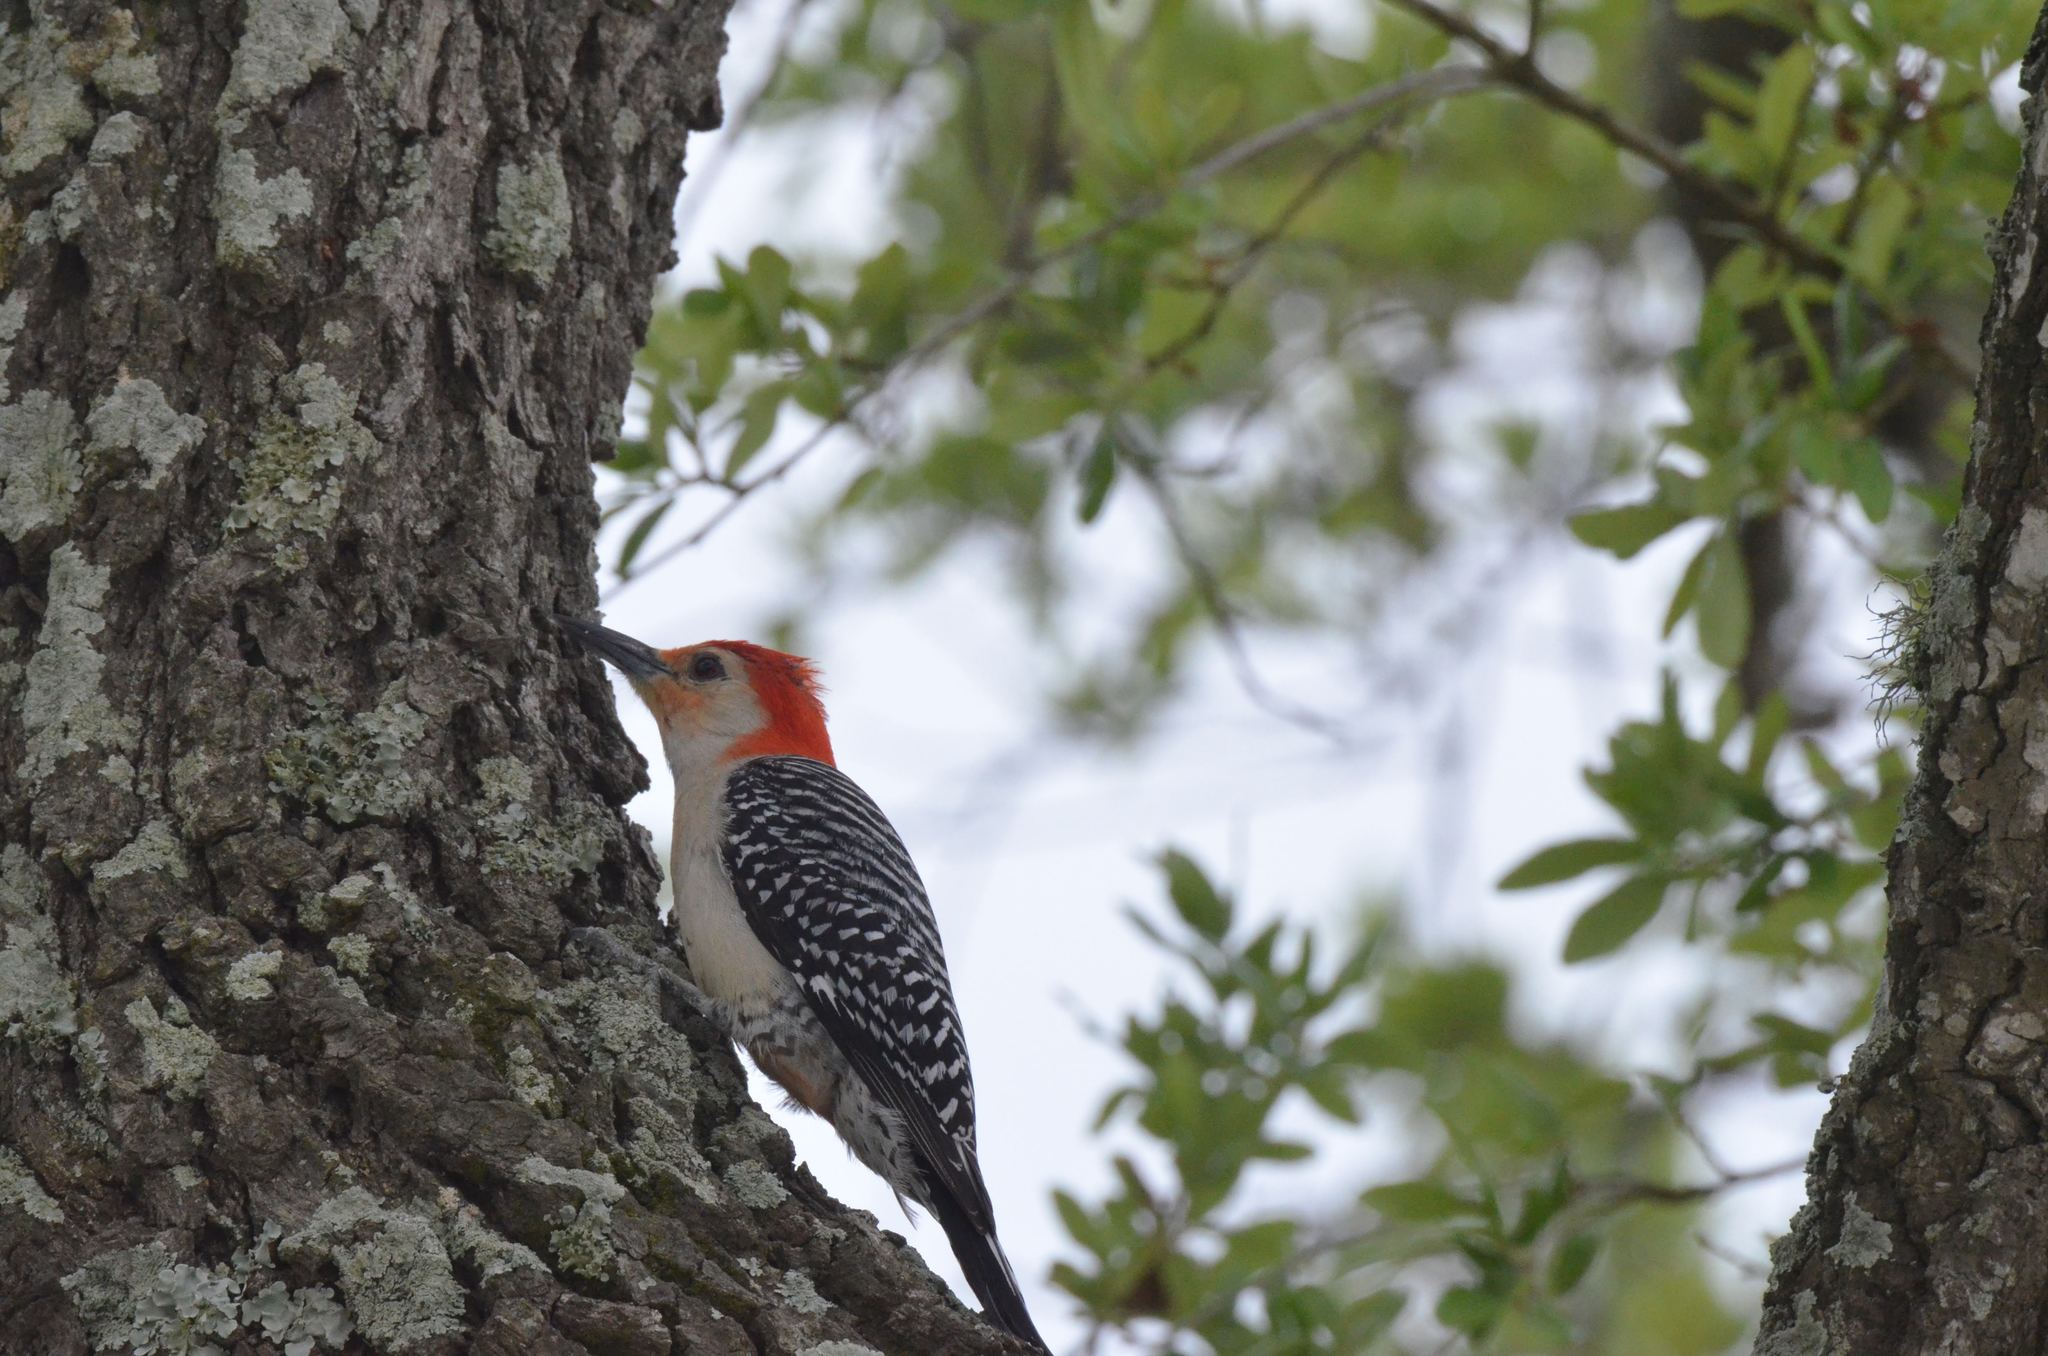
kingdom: Animalia
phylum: Chordata
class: Aves
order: Piciformes
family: Picidae
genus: Melanerpes
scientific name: Melanerpes carolinus
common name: Red-bellied woodpecker
